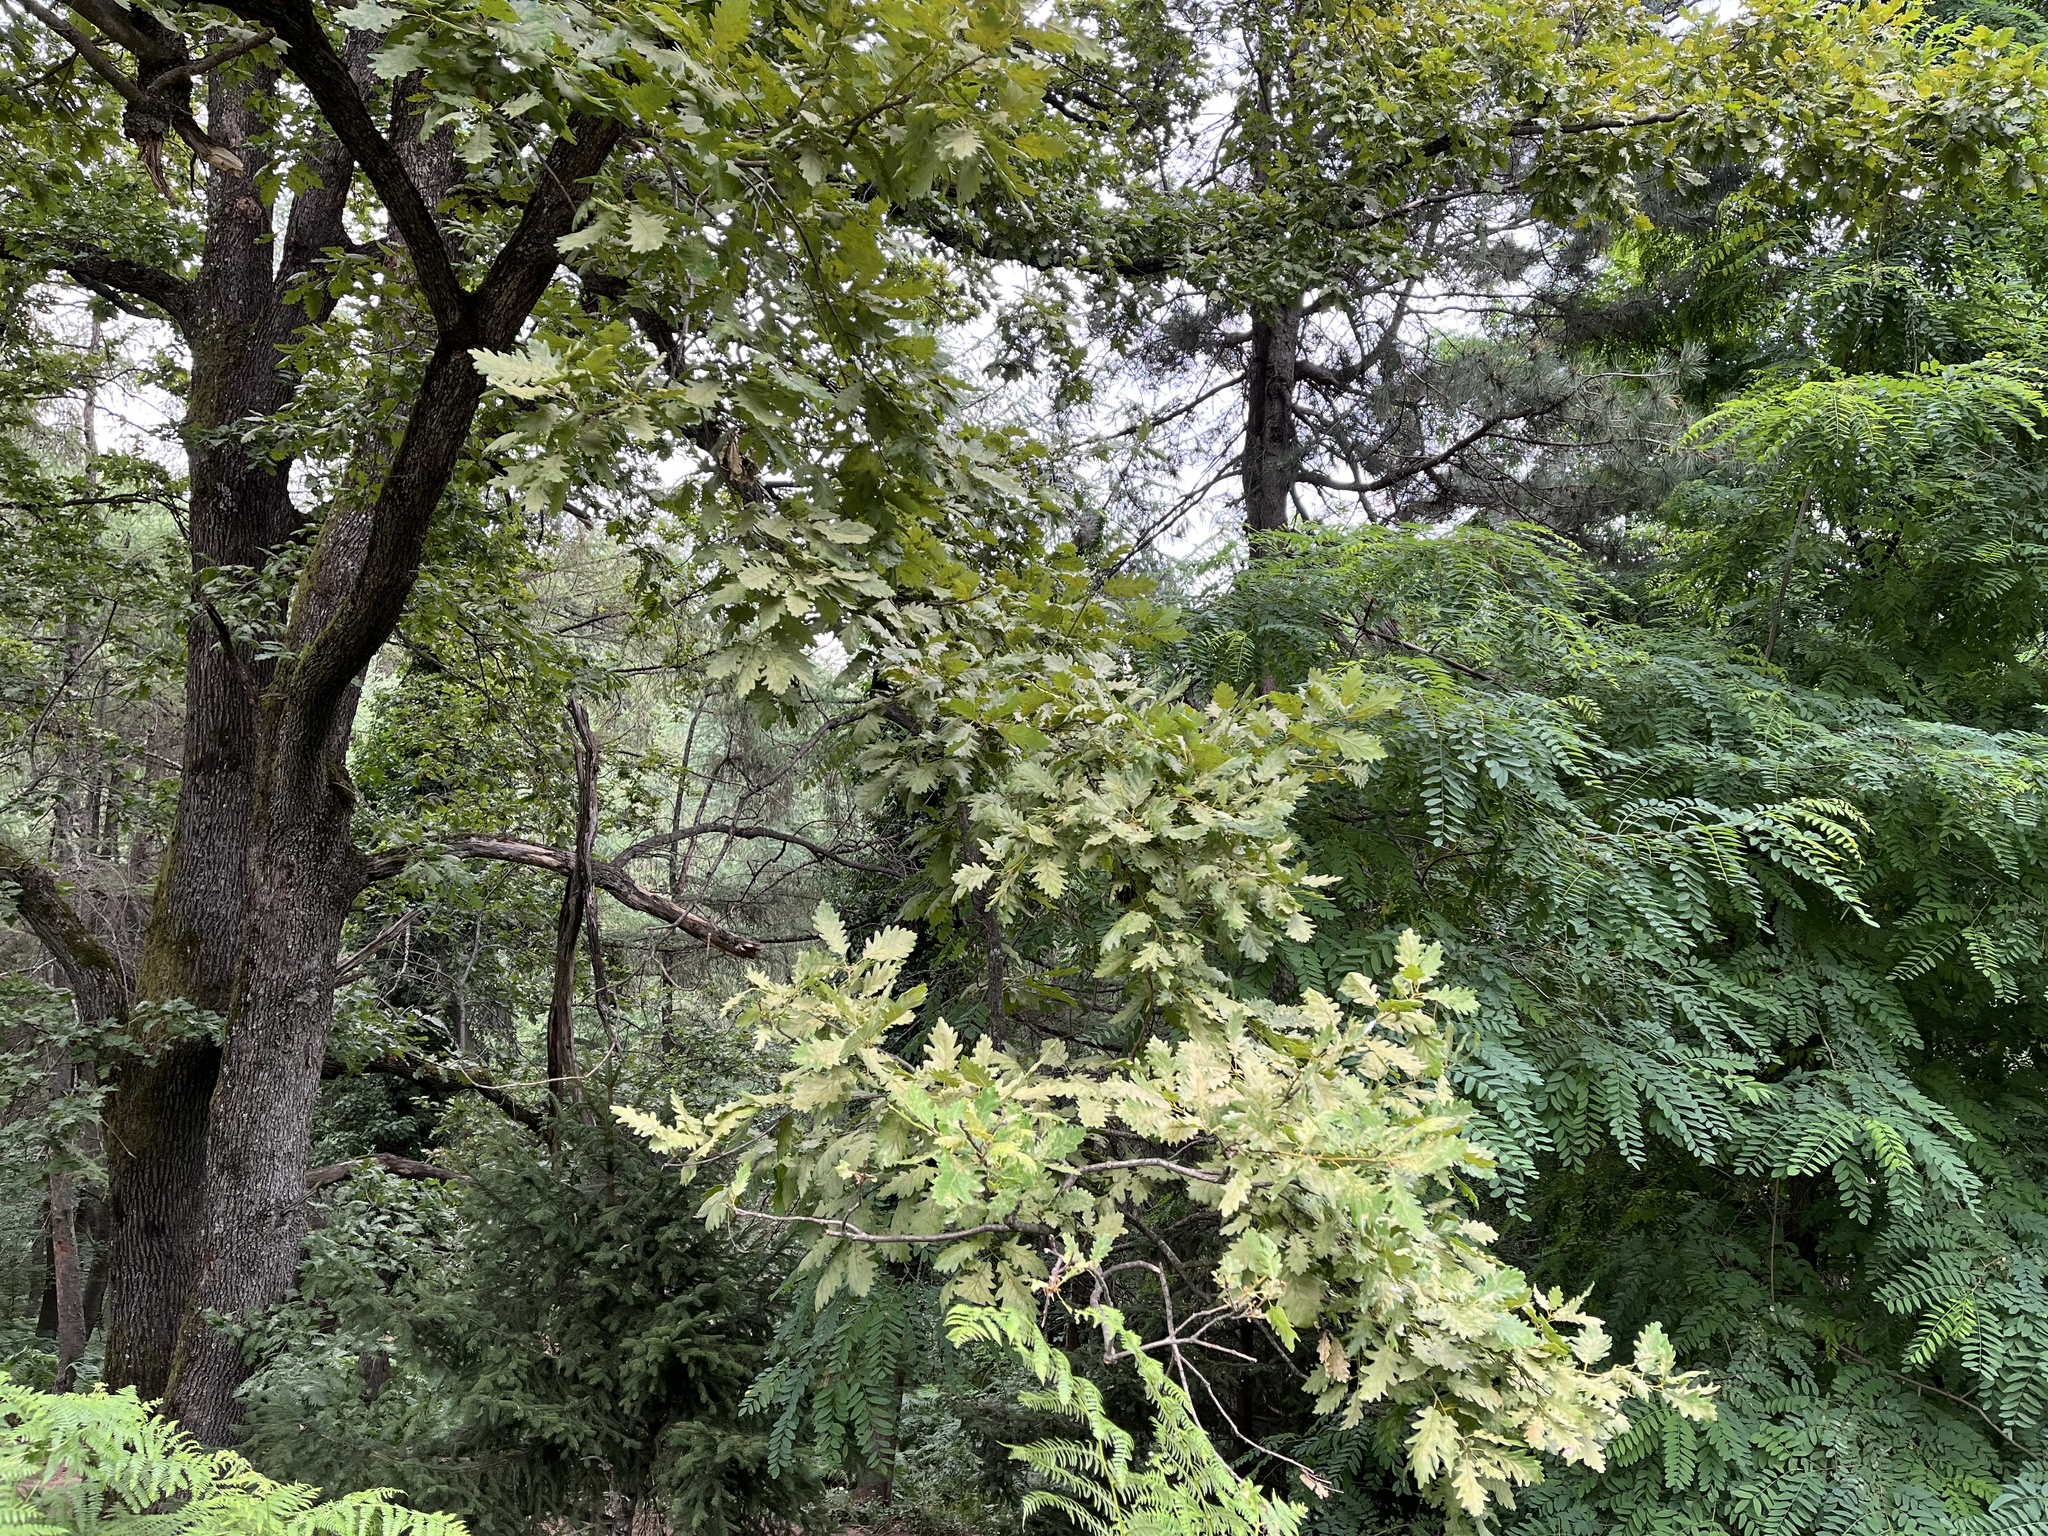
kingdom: Plantae
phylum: Tracheophyta
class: Magnoliopsida
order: Fagales
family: Fagaceae
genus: Quercus
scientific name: Quercus petraea
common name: Sessile oak
